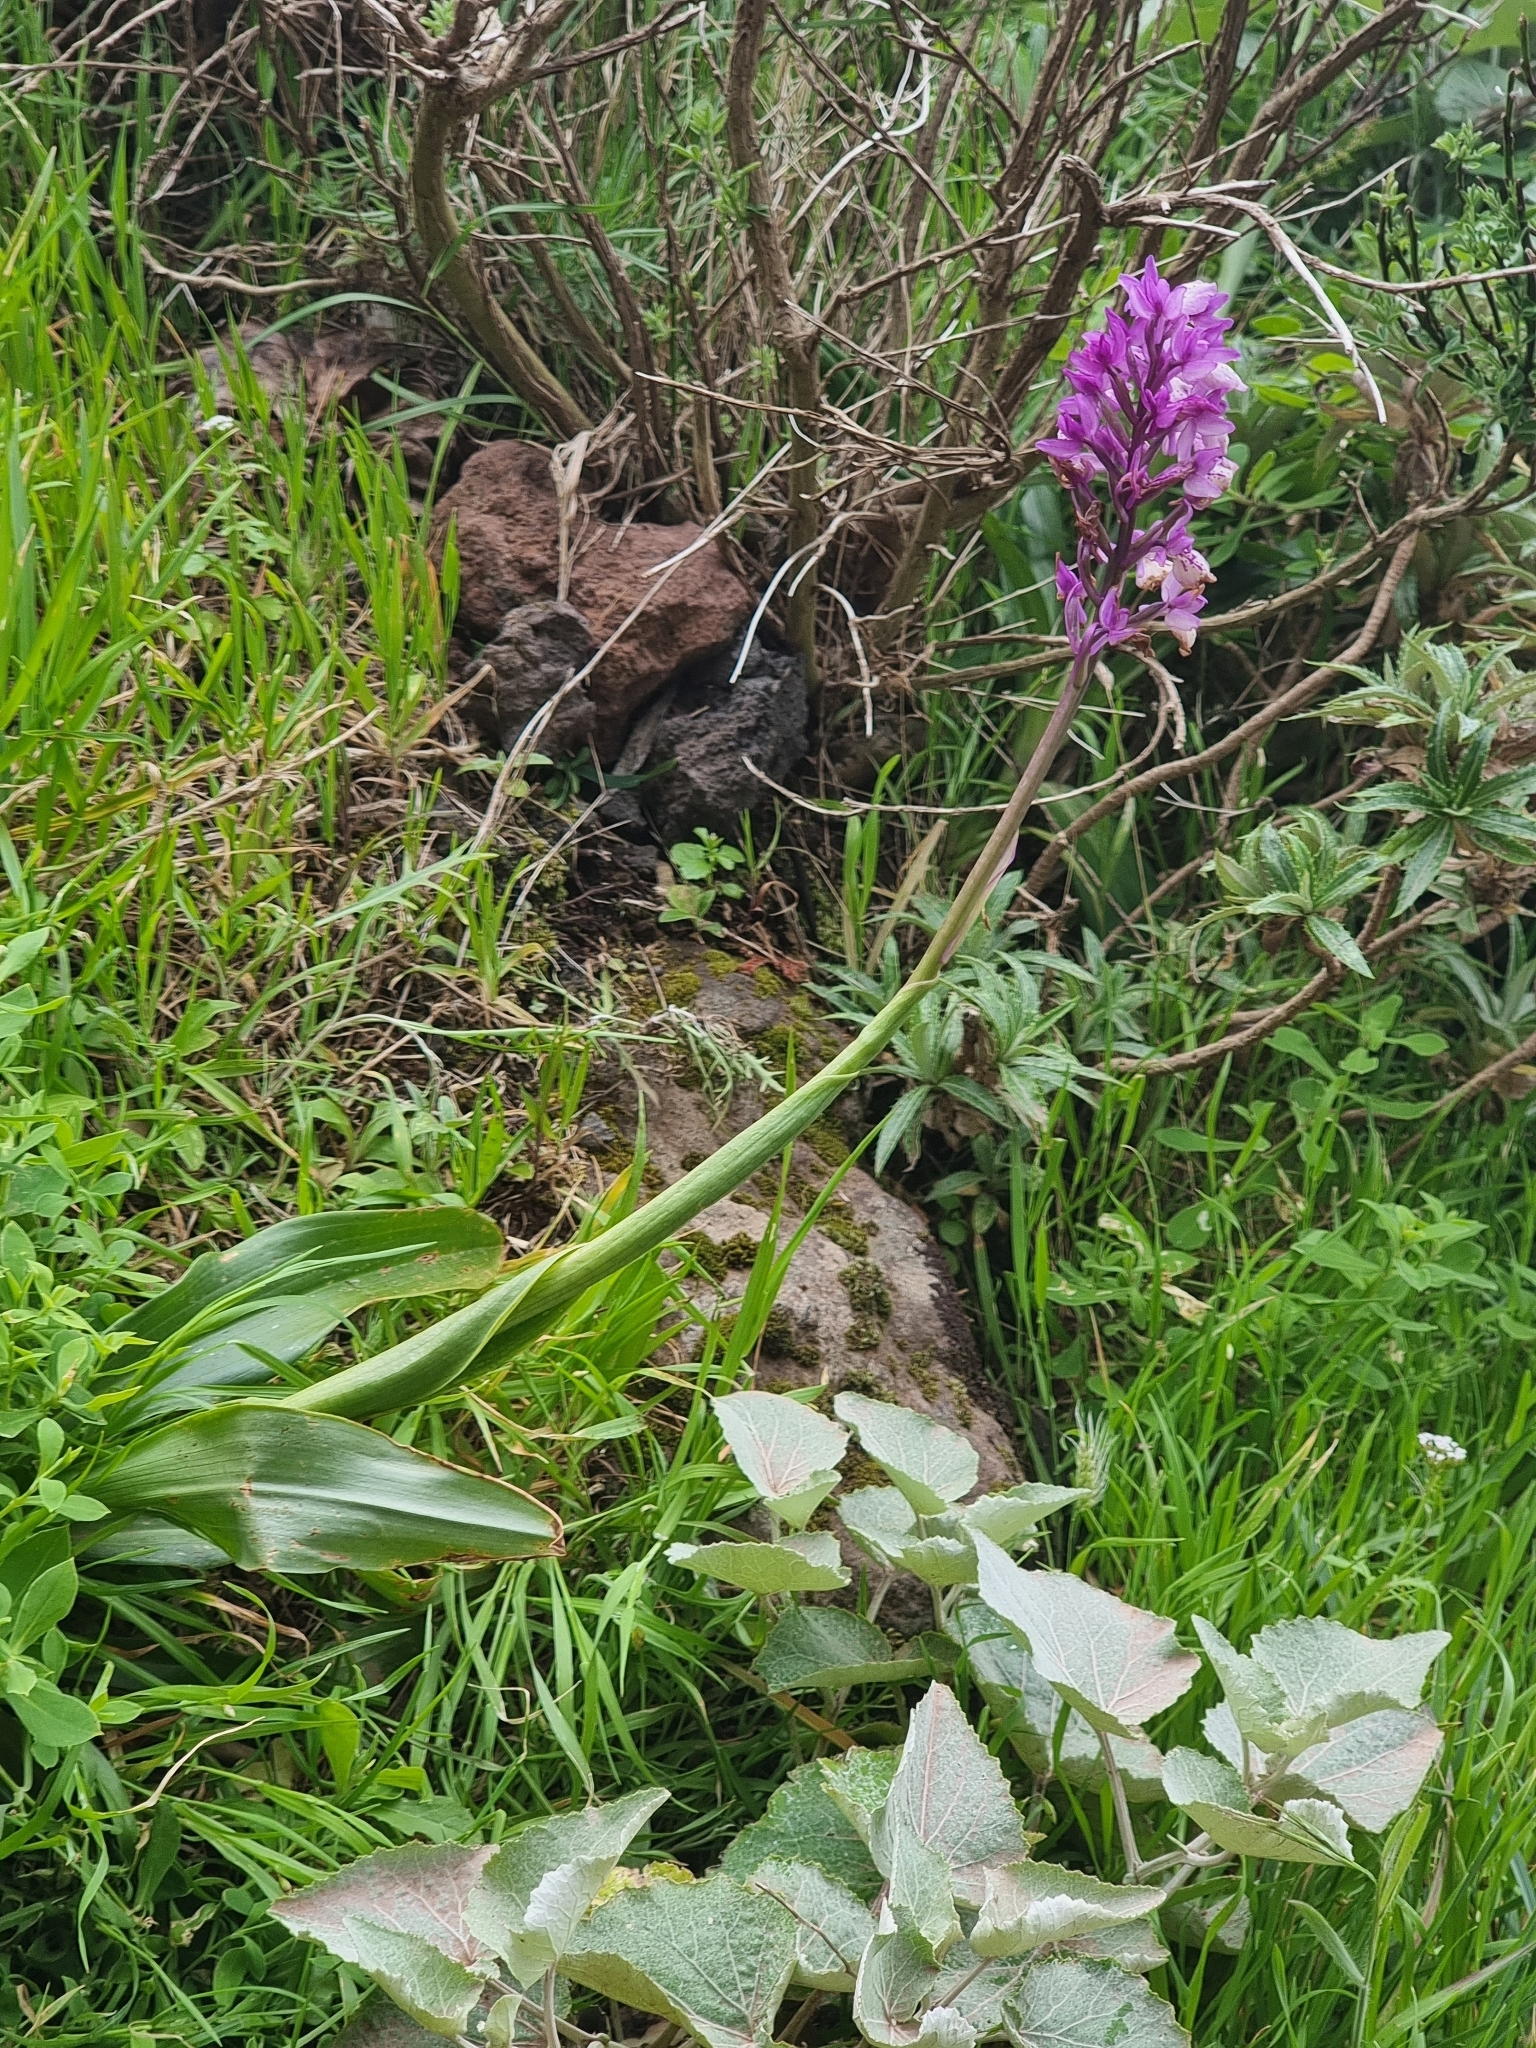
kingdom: Plantae
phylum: Tracheophyta
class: Liliopsida
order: Asparagales
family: Orchidaceae
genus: Orchis
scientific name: Orchis mascula
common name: Early-purple orchid
